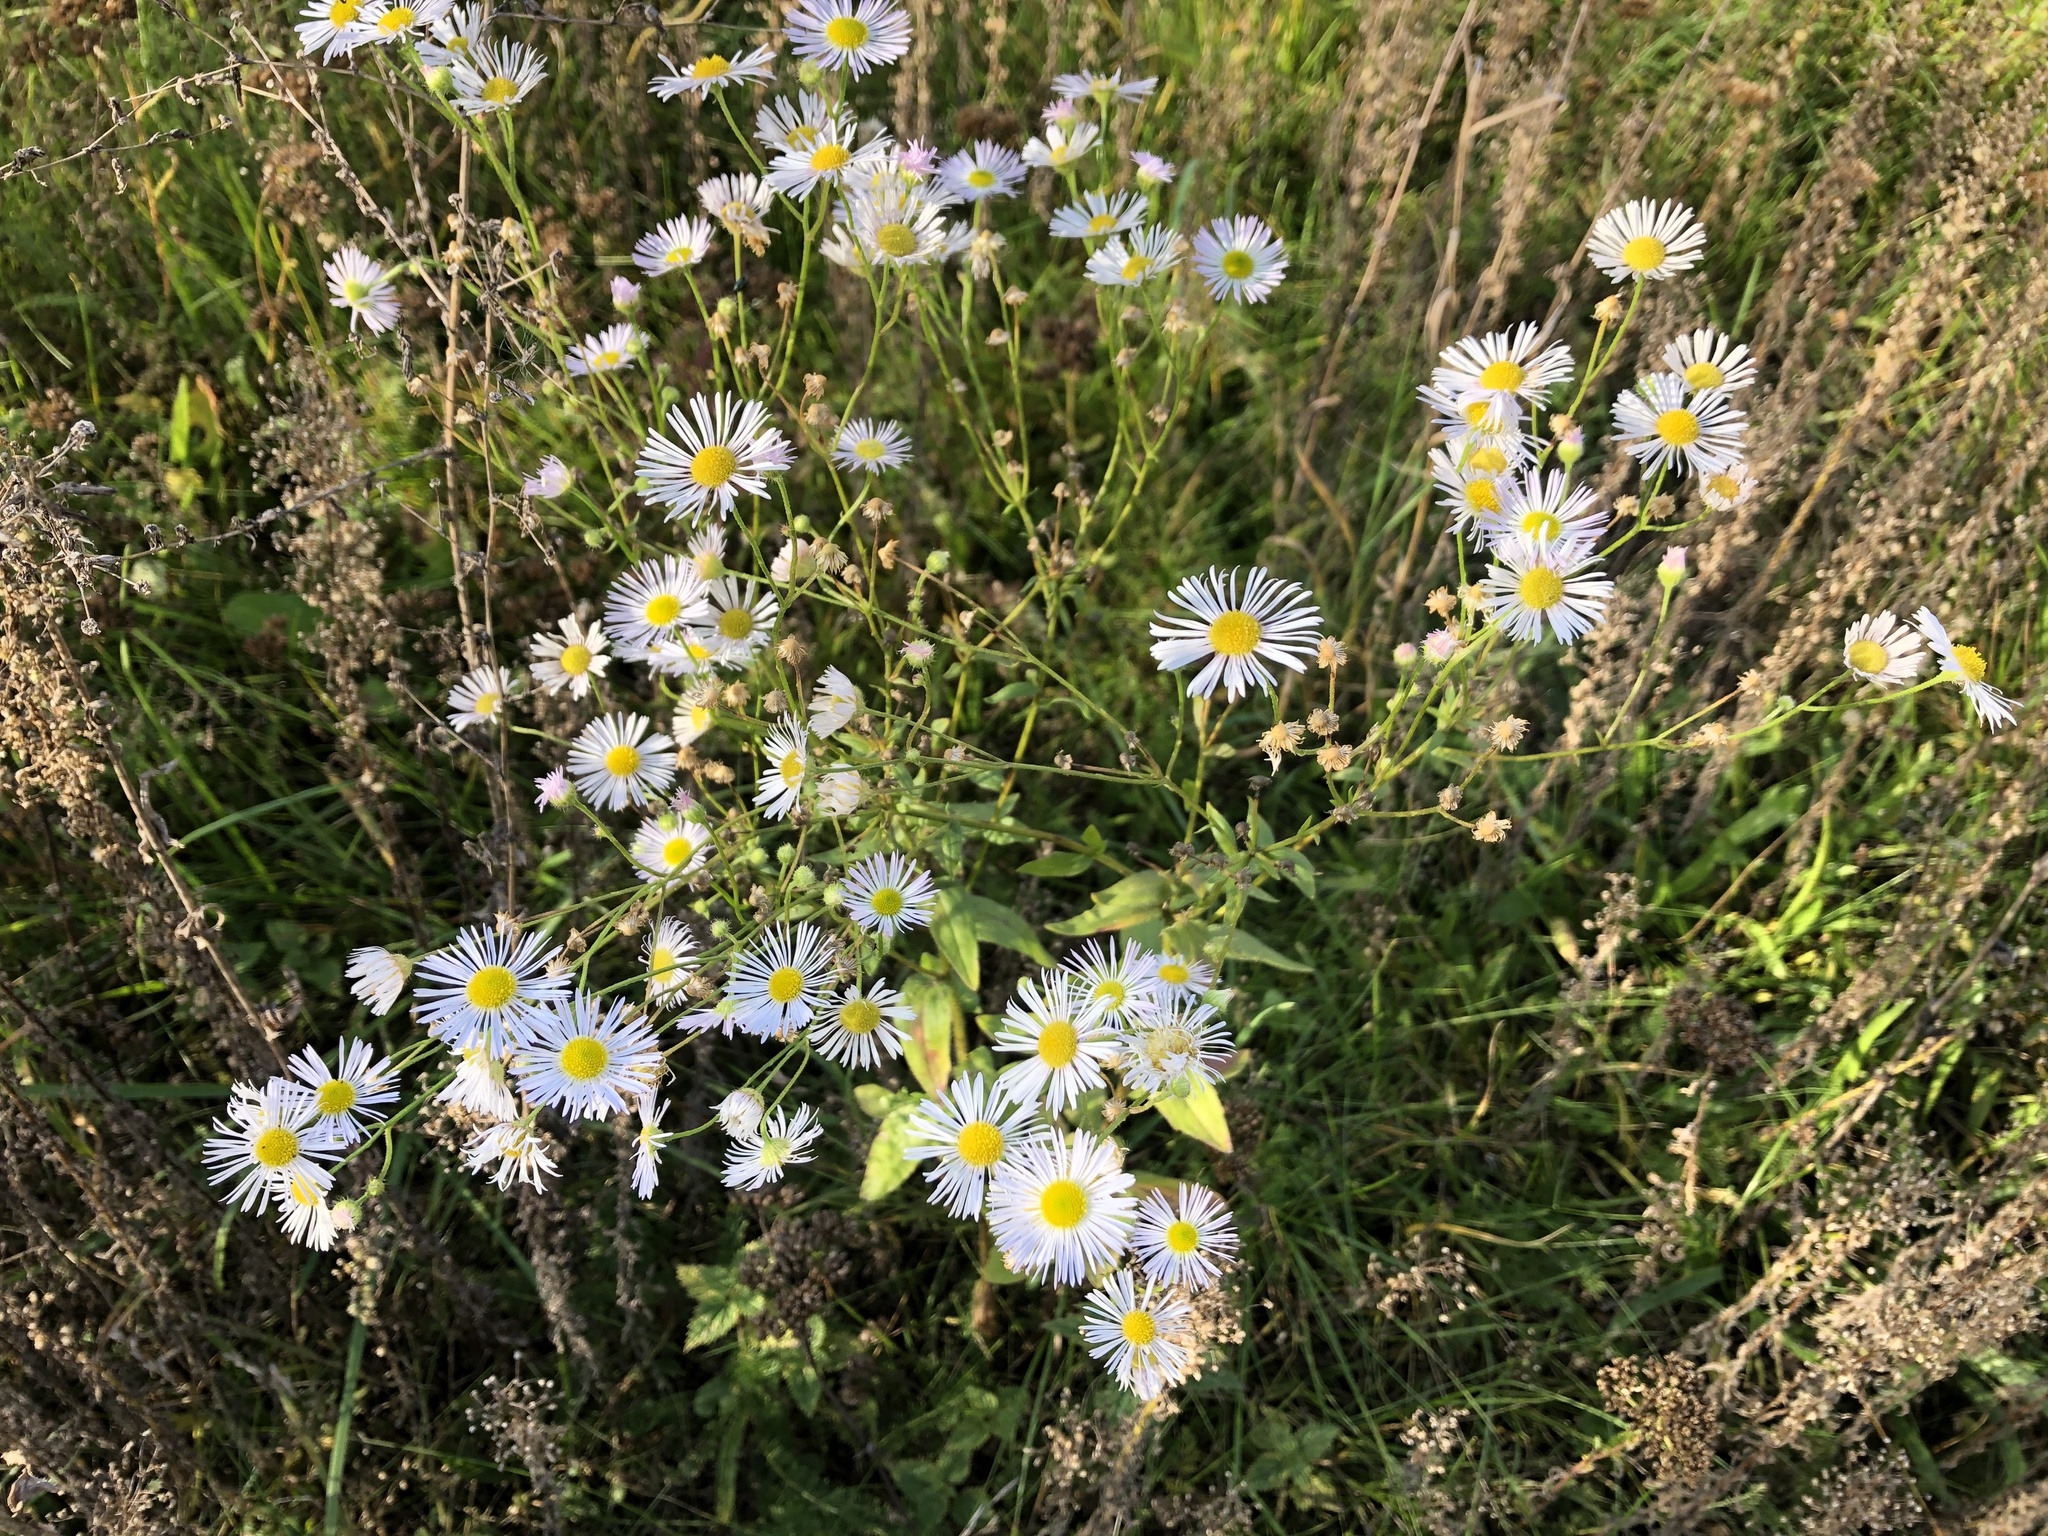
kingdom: Plantae
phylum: Tracheophyta
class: Magnoliopsida
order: Asterales
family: Asteraceae
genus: Erigeron
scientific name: Erigeron annuus
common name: Tall fleabane
